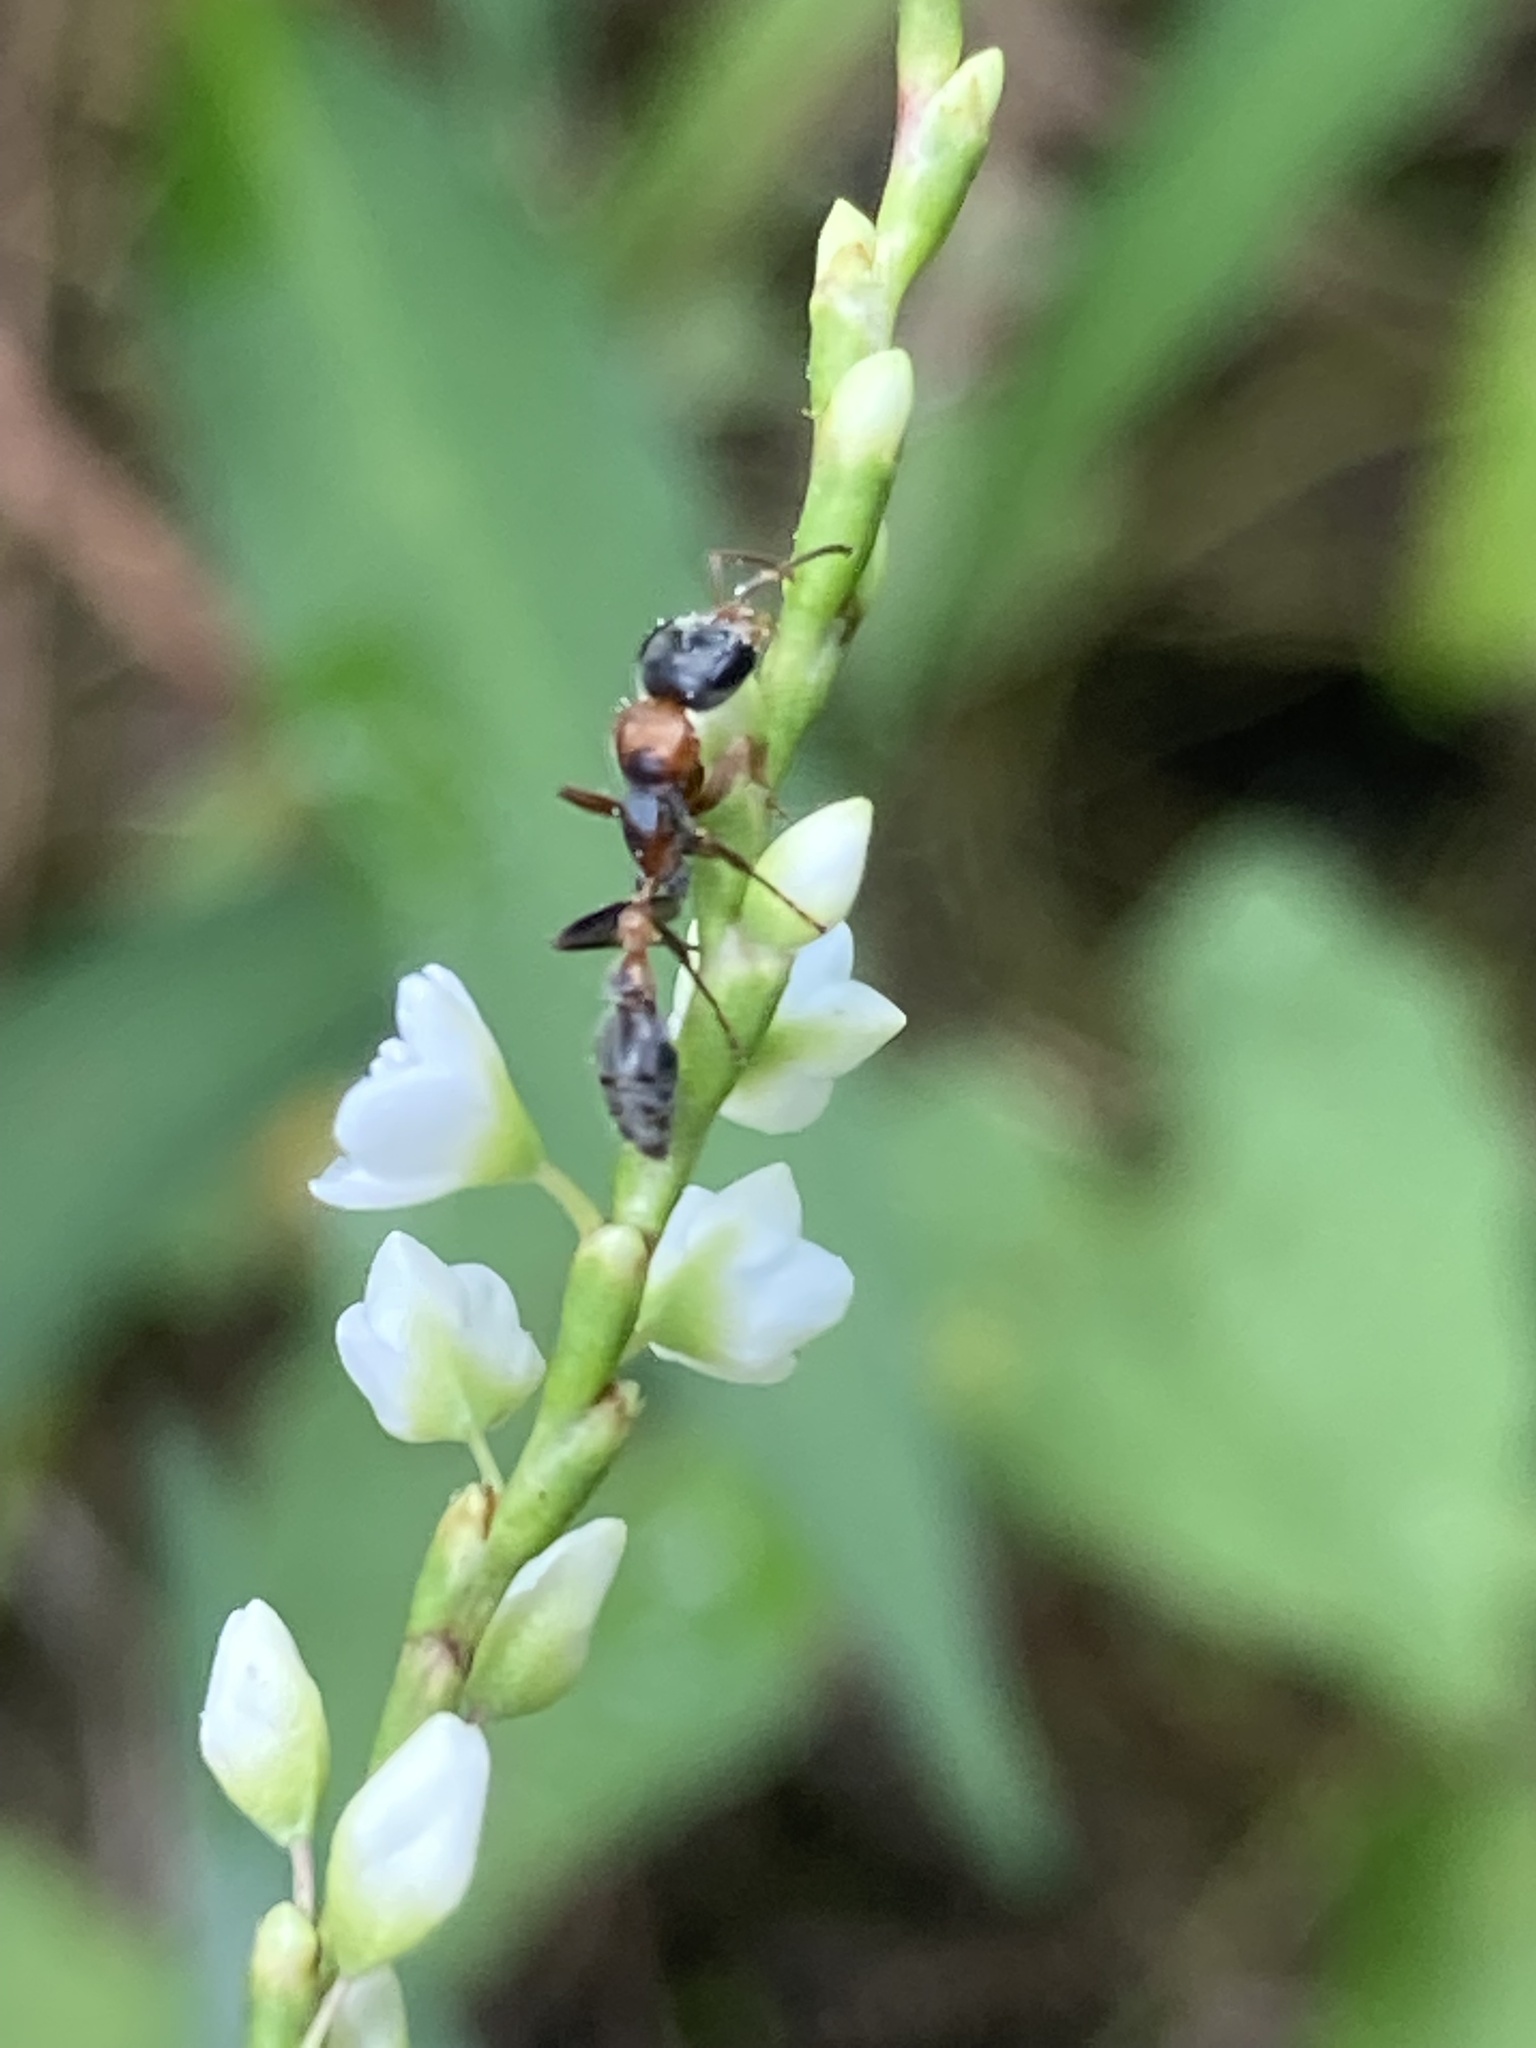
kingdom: Animalia
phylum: Arthropoda
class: Insecta
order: Hymenoptera
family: Formicidae
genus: Pseudomyrmex
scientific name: Pseudomyrmex gracilis
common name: Graceful twig ant
